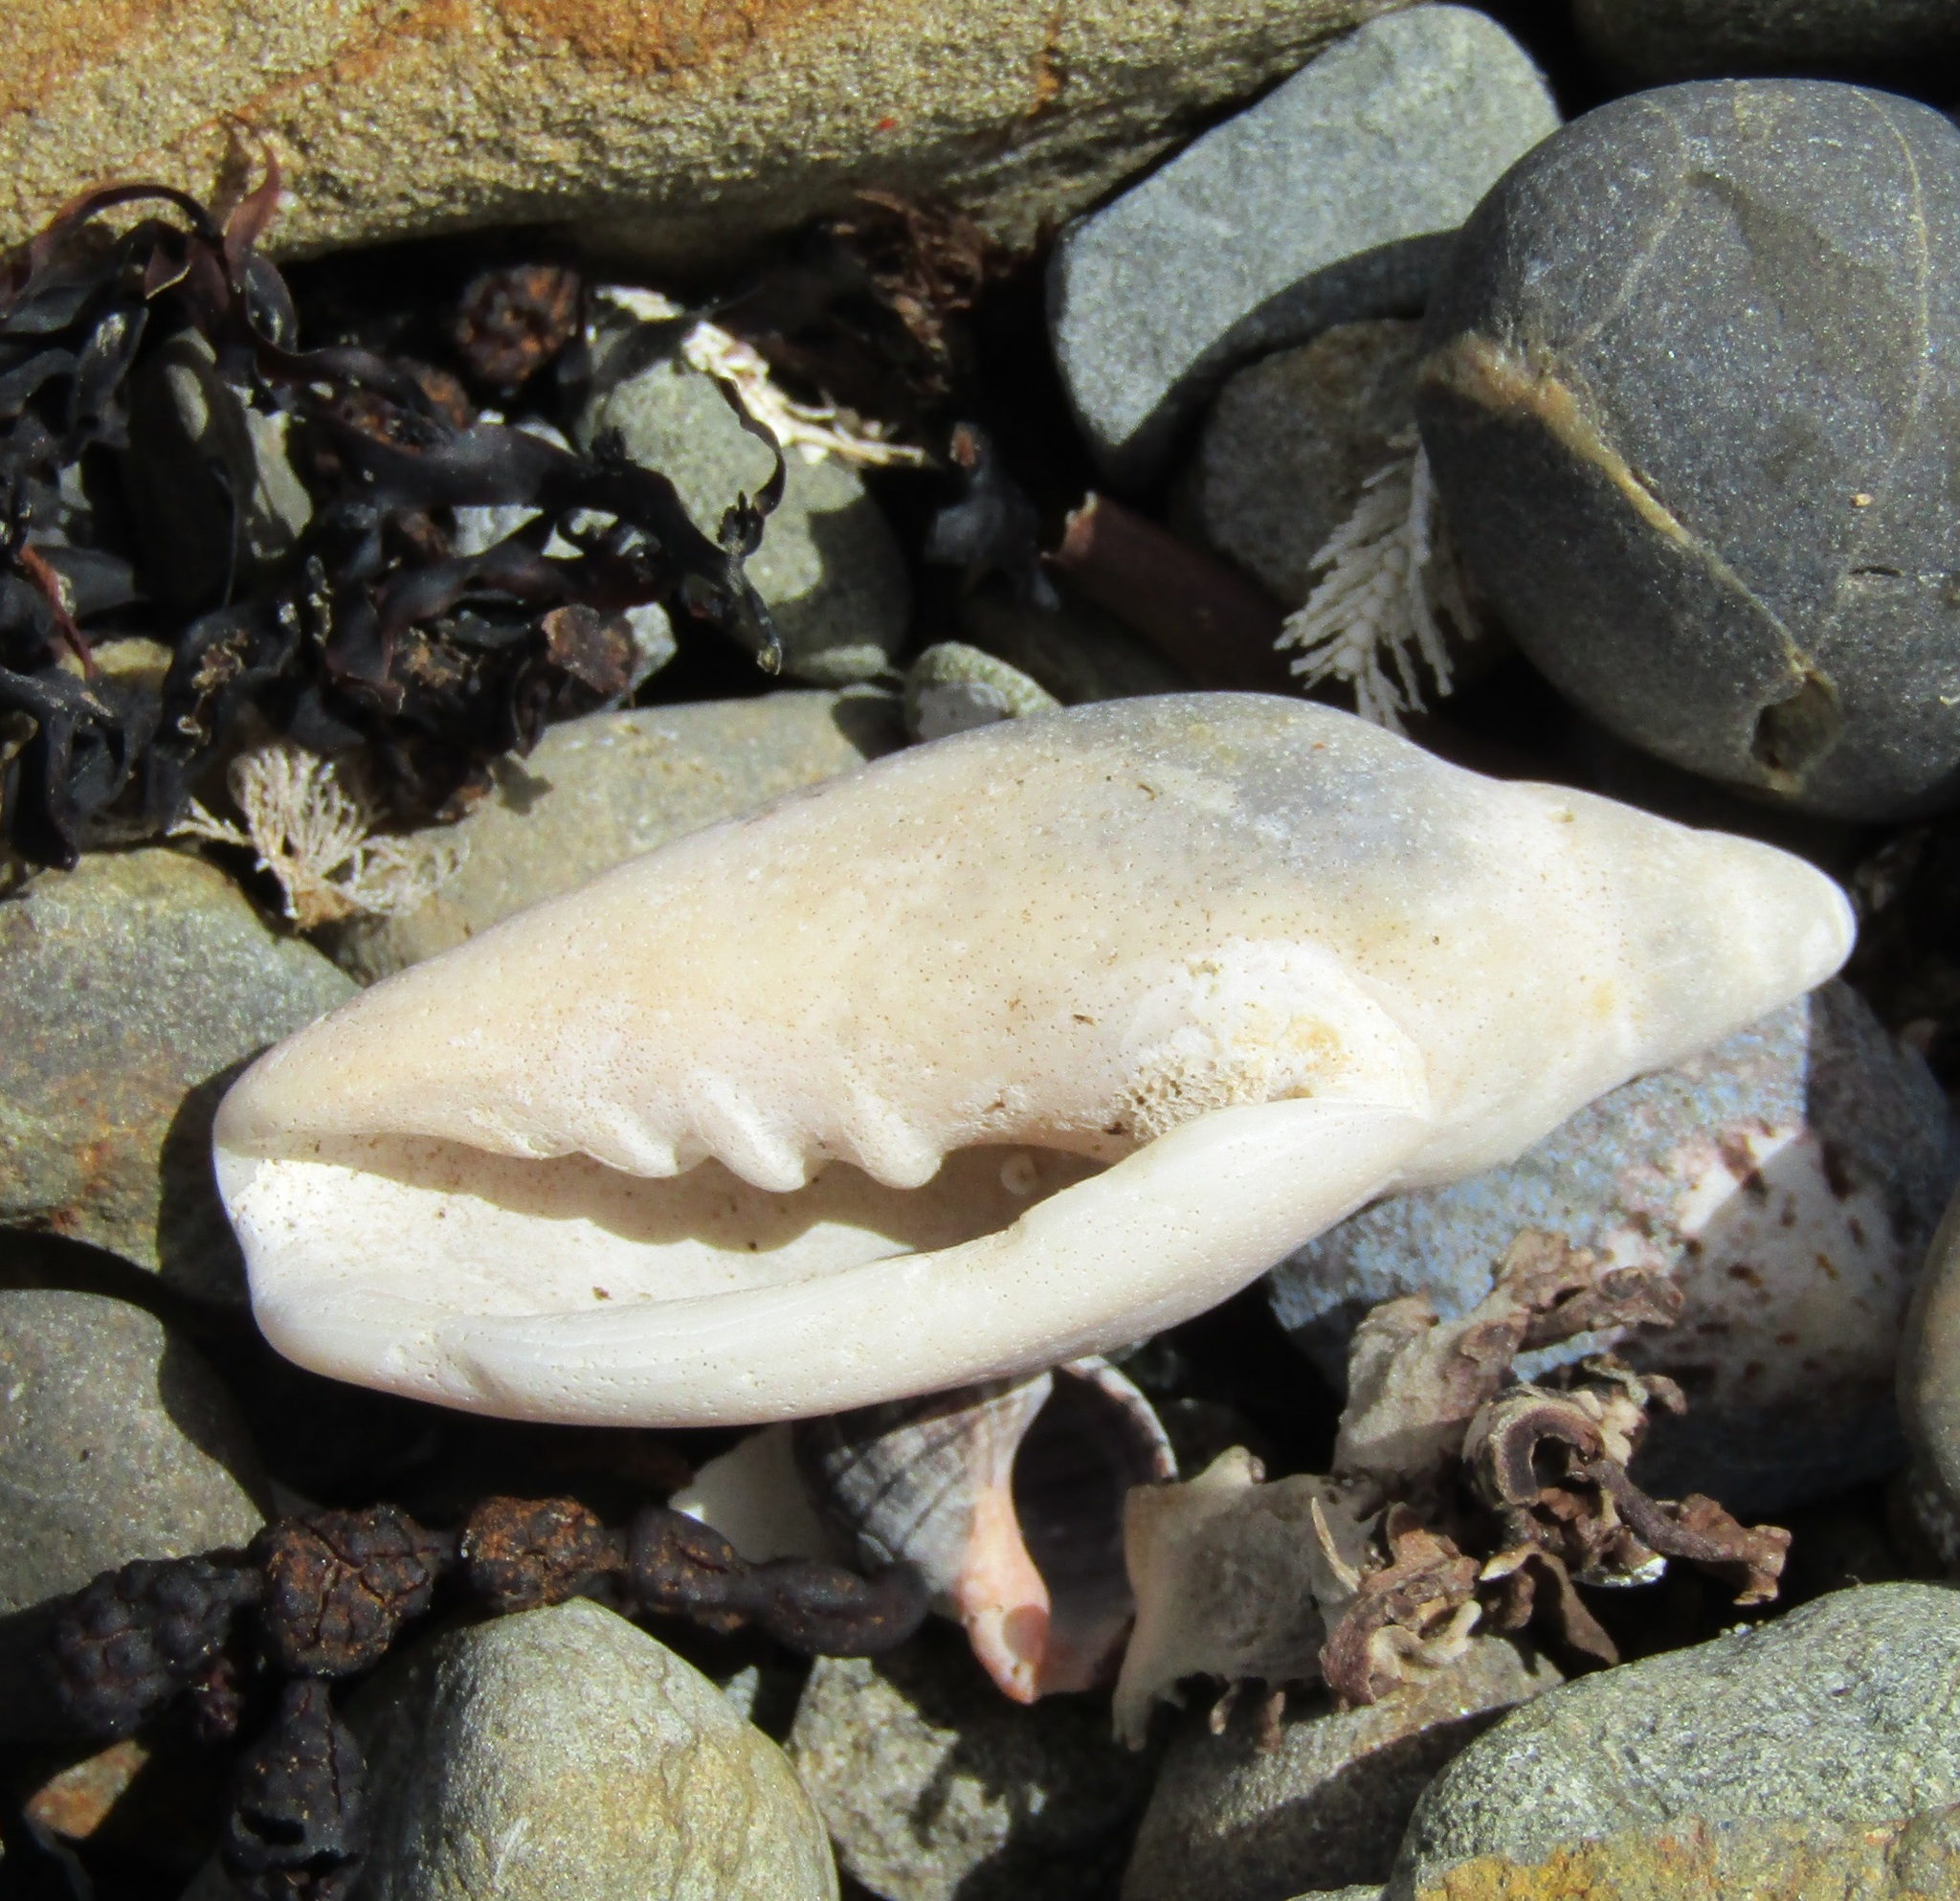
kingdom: Animalia
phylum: Mollusca
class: Gastropoda
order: Neogastropoda
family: Volutidae
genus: Alcithoe
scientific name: Alcithoe fusus
